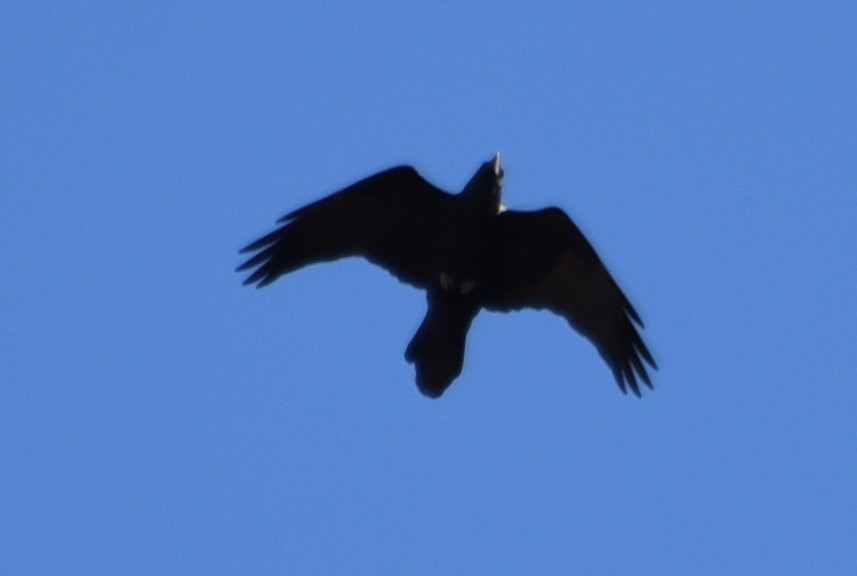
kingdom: Animalia
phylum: Chordata
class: Aves
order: Passeriformes
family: Corvidae
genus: Corvus
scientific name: Corvus cryptoleucus
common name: Chihuahuan raven
